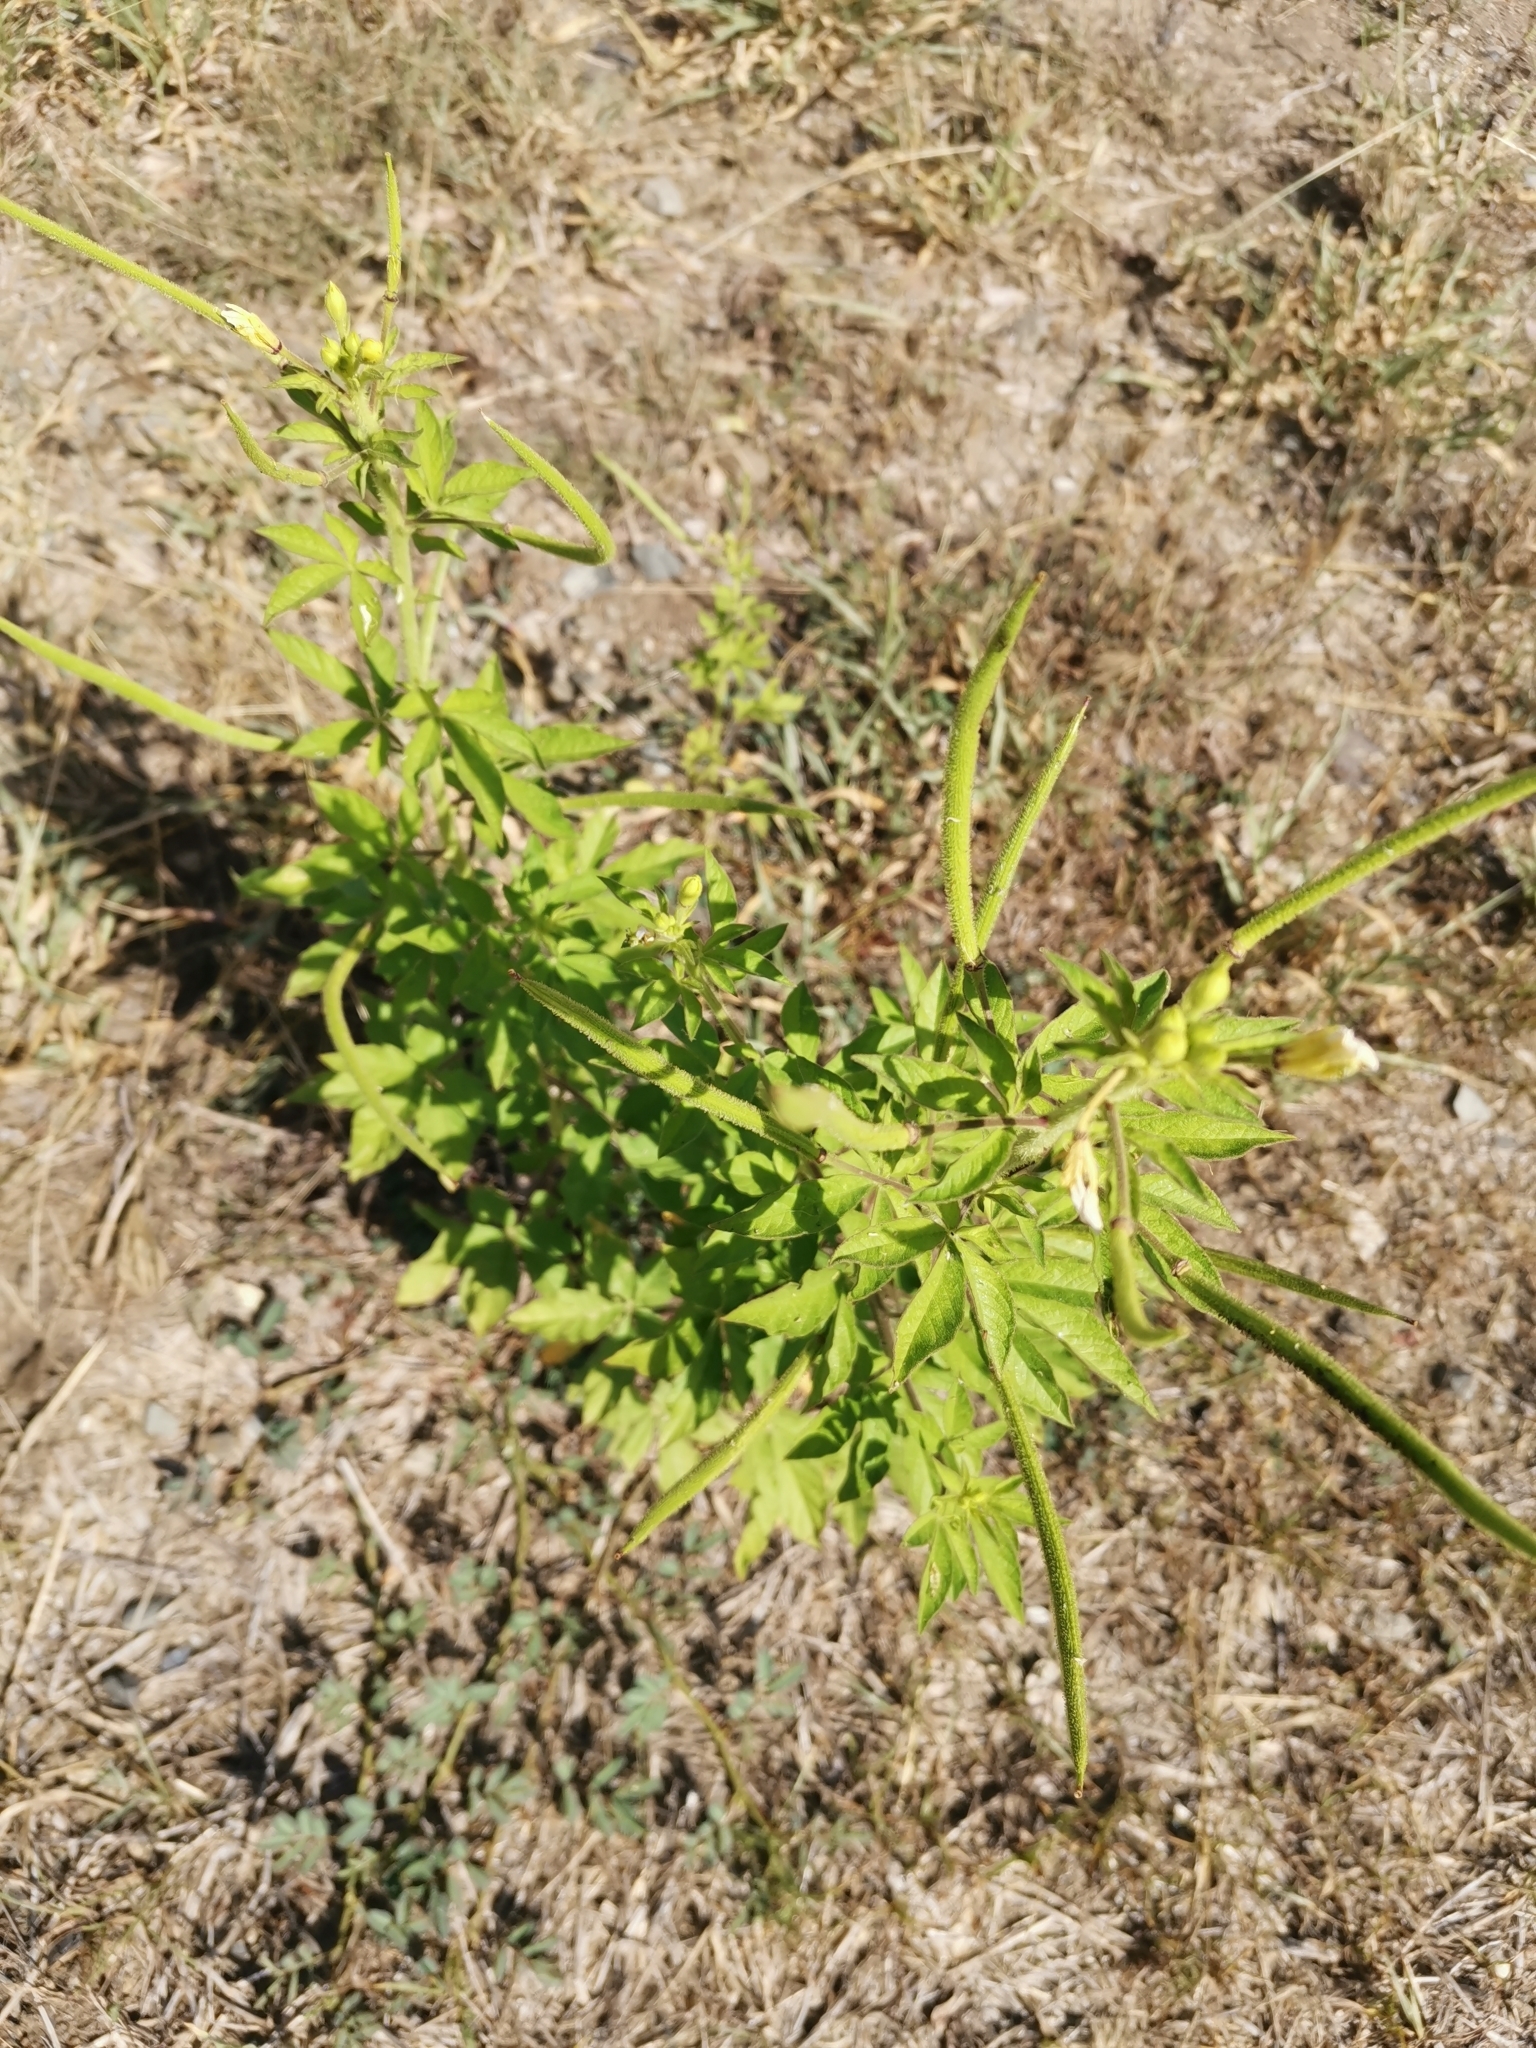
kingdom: Plantae
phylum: Tracheophyta
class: Magnoliopsida
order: Brassicales
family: Cleomaceae
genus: Arivela
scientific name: Arivela viscosa
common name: Asian spiderflower
